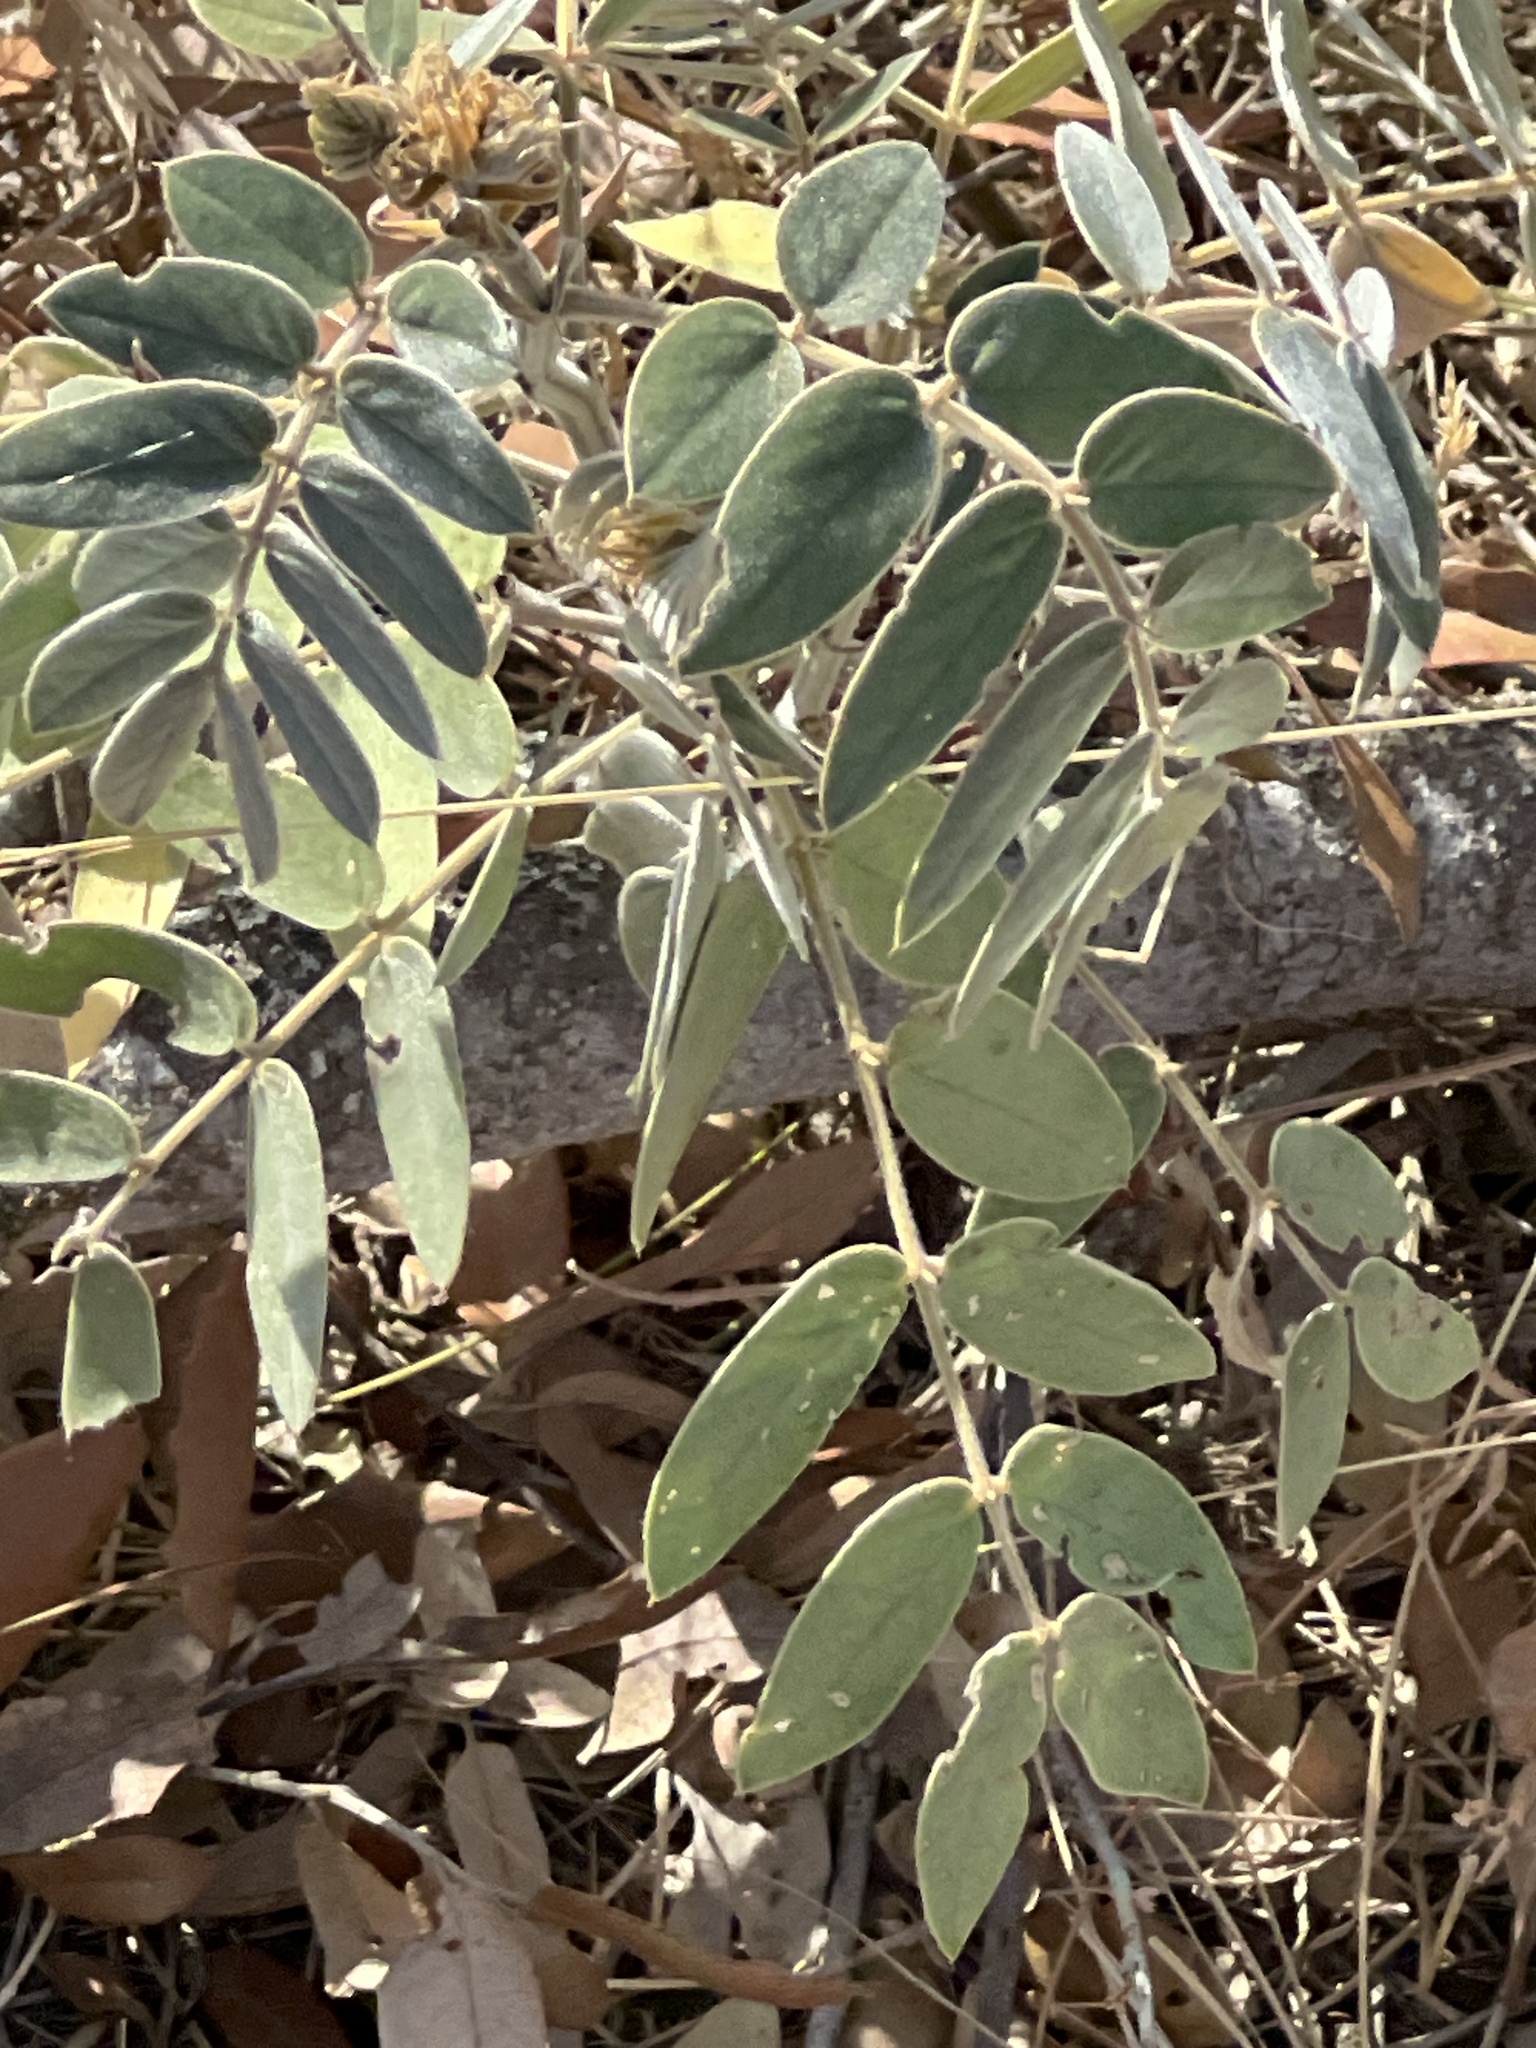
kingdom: Plantae
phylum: Tracheophyta
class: Magnoliopsida
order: Fabales
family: Fabaceae
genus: Senna
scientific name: Senna lindheimeriana
